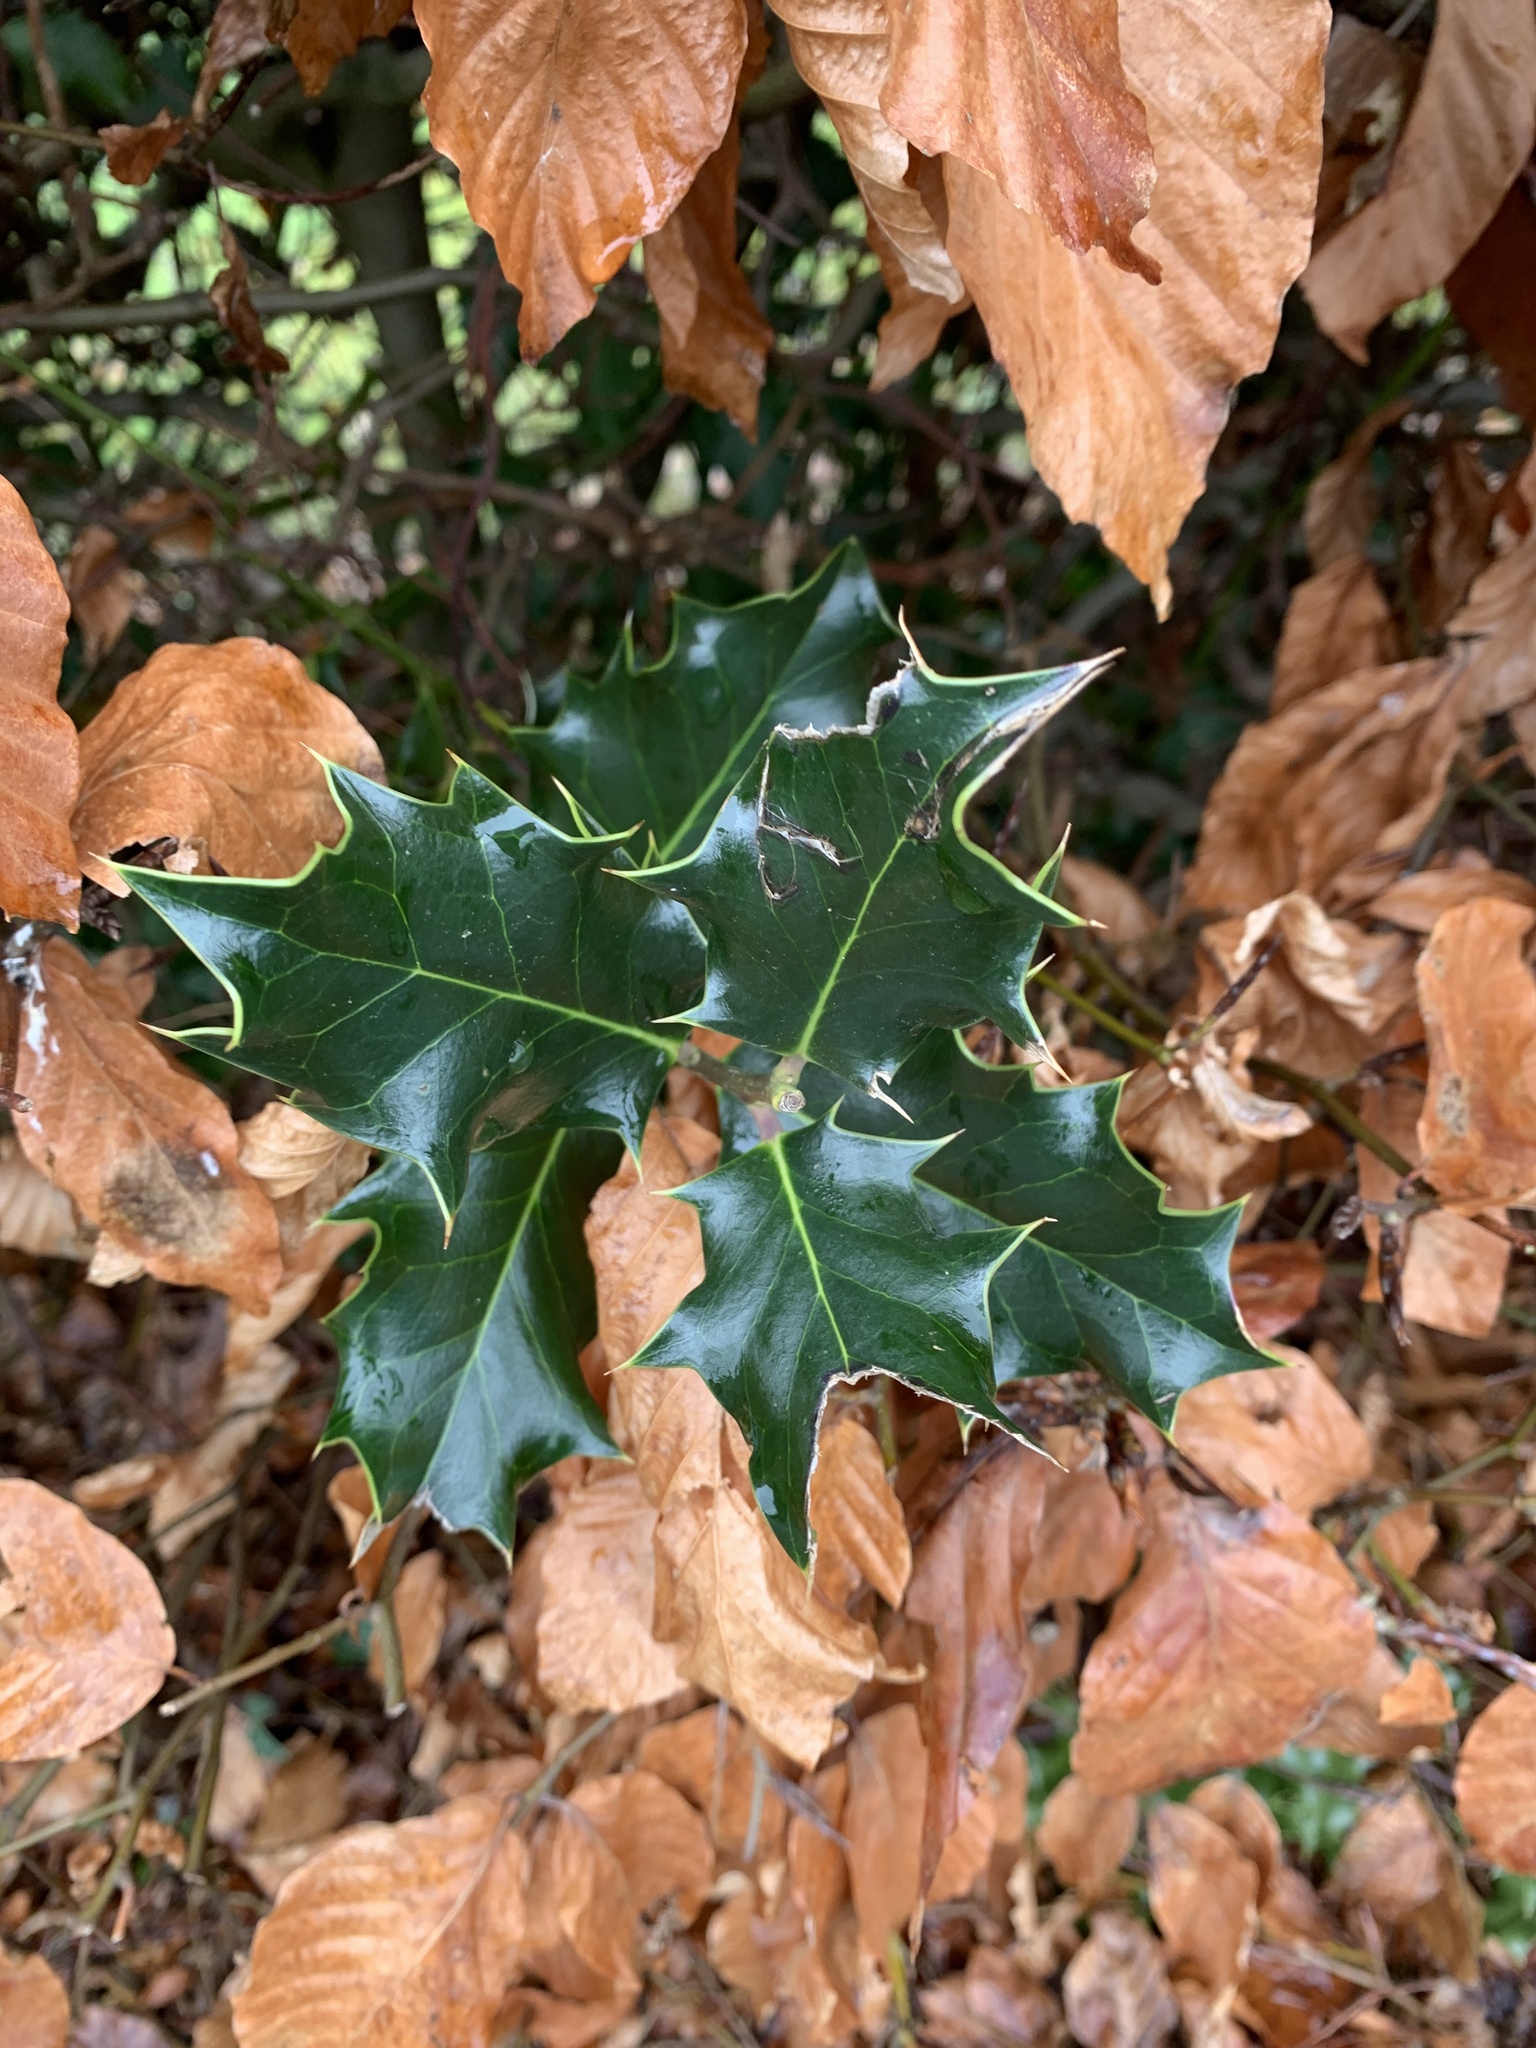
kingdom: Plantae
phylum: Tracheophyta
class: Magnoliopsida
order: Aquifoliales
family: Aquifoliaceae
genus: Ilex
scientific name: Ilex aquifolium
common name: English holly
